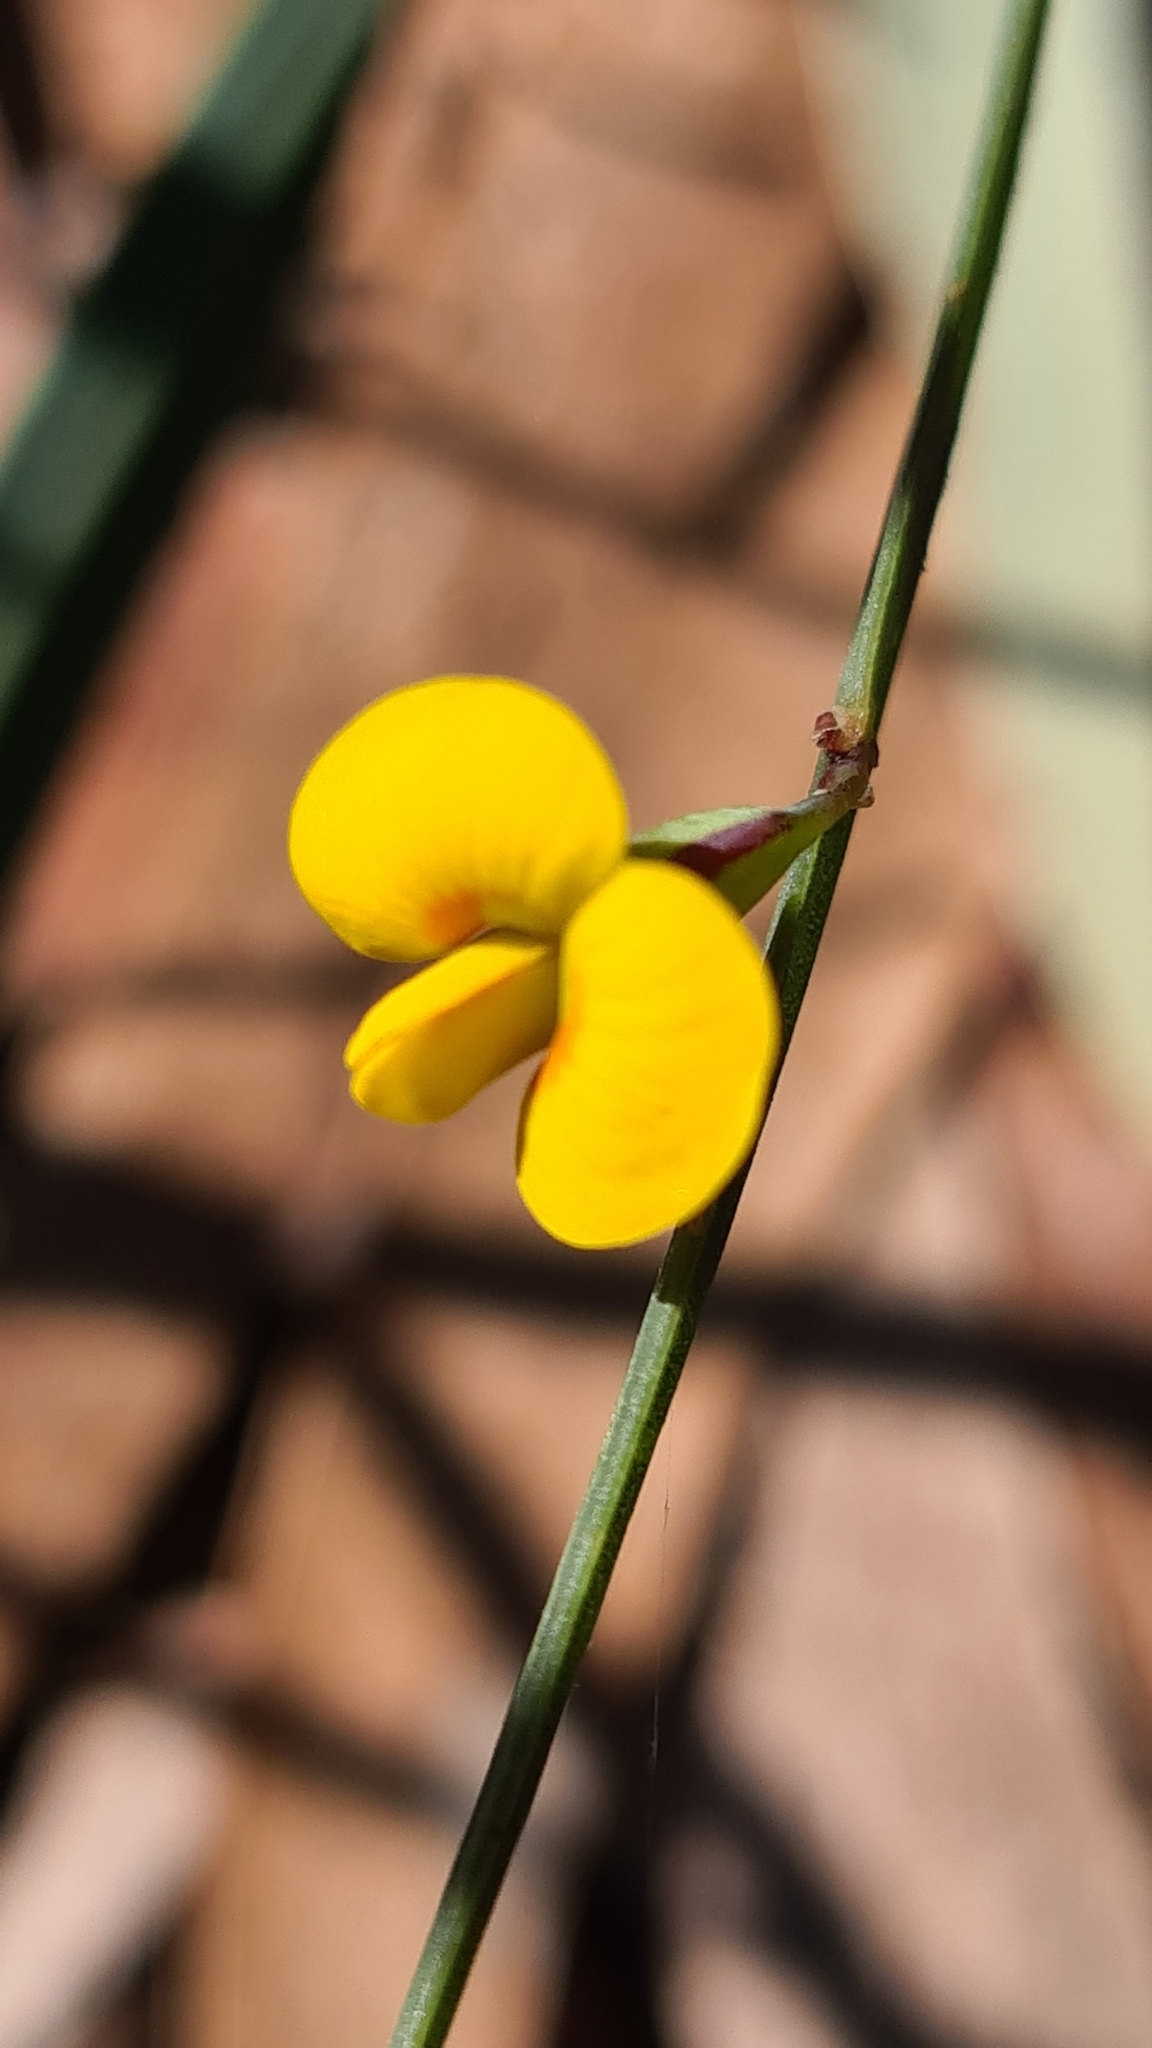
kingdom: Plantae
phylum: Tracheophyta
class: Magnoliopsida
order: Fabales
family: Fabaceae
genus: Bossiaea
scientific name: Bossiaea ensata
